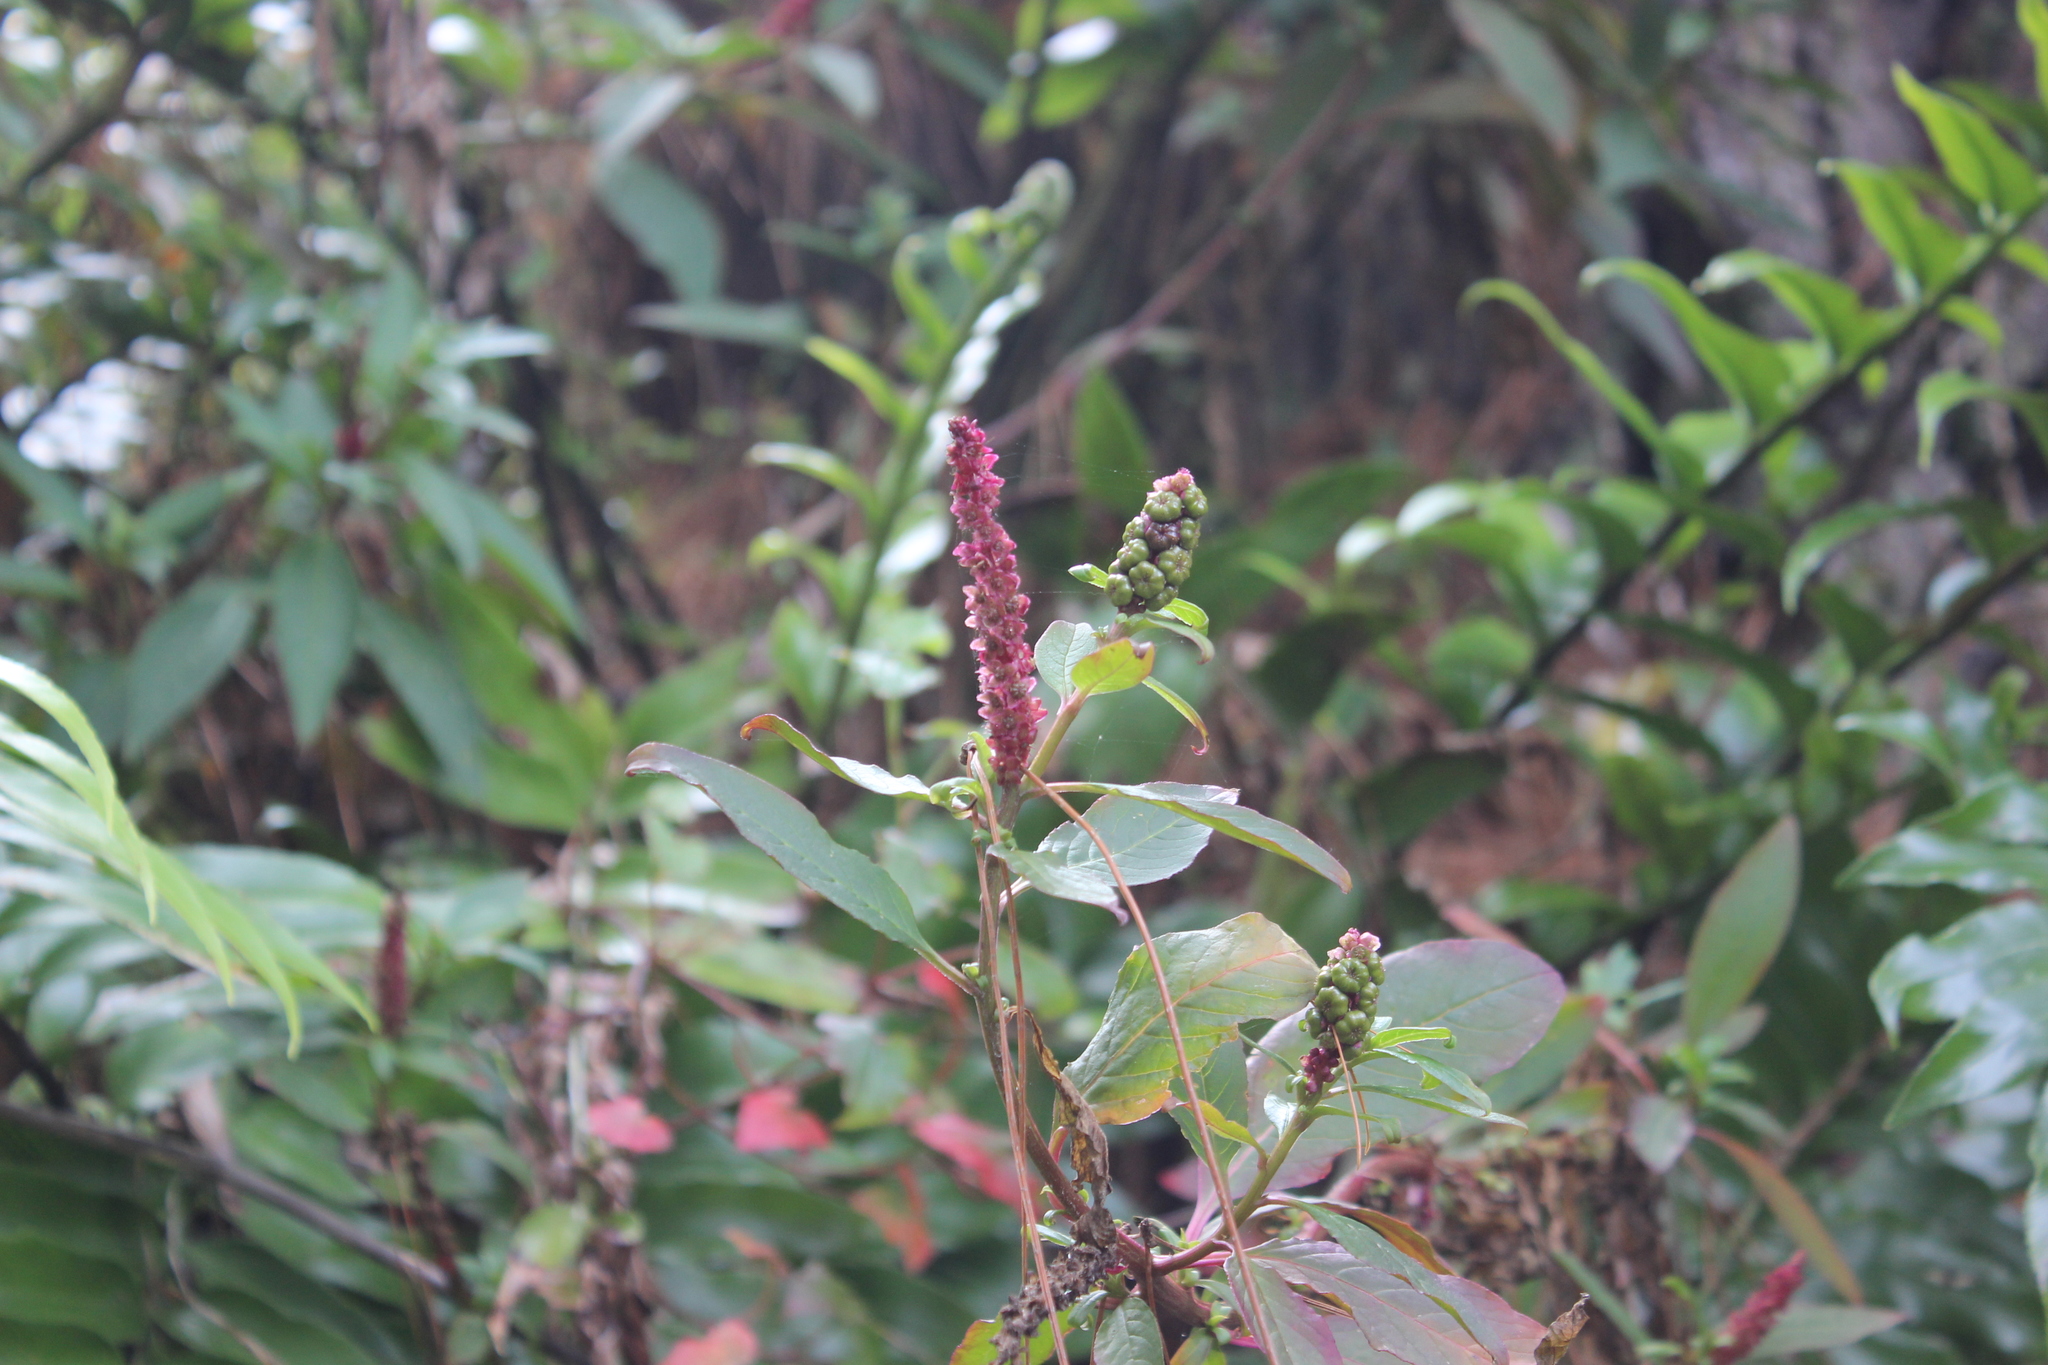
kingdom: Plantae
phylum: Tracheophyta
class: Magnoliopsida
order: Caryophyllales
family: Phytolaccaceae
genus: Phytolacca
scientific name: Phytolacca icosandra
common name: Button pokeweed
